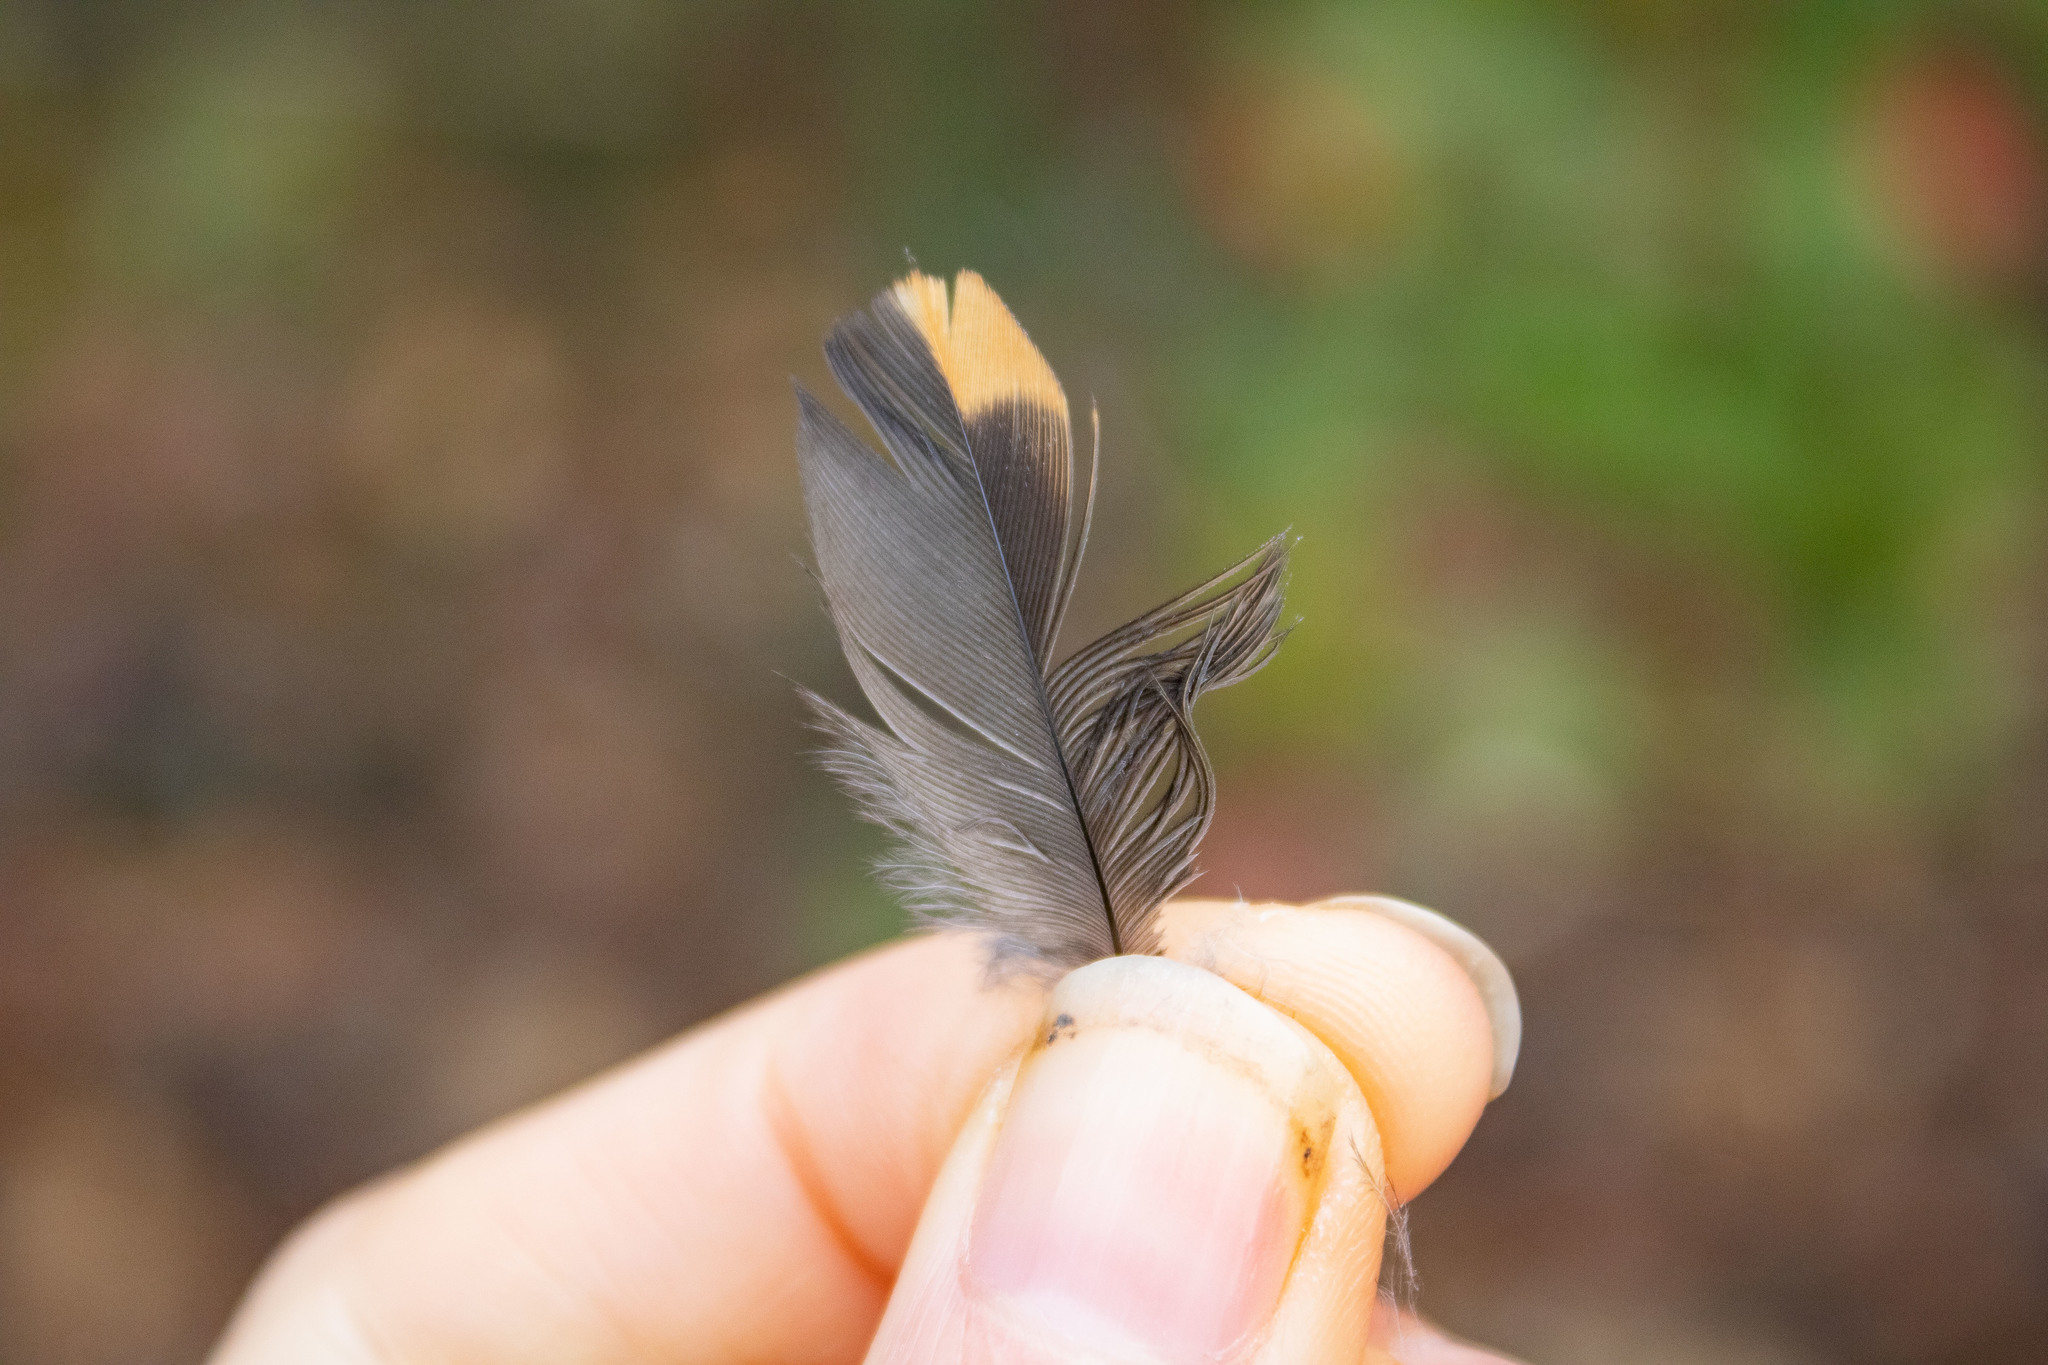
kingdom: Animalia
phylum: Chordata
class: Aves
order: Passeriformes
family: Turdidae
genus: Ixoreus
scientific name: Ixoreus naevius
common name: Varied thrush
